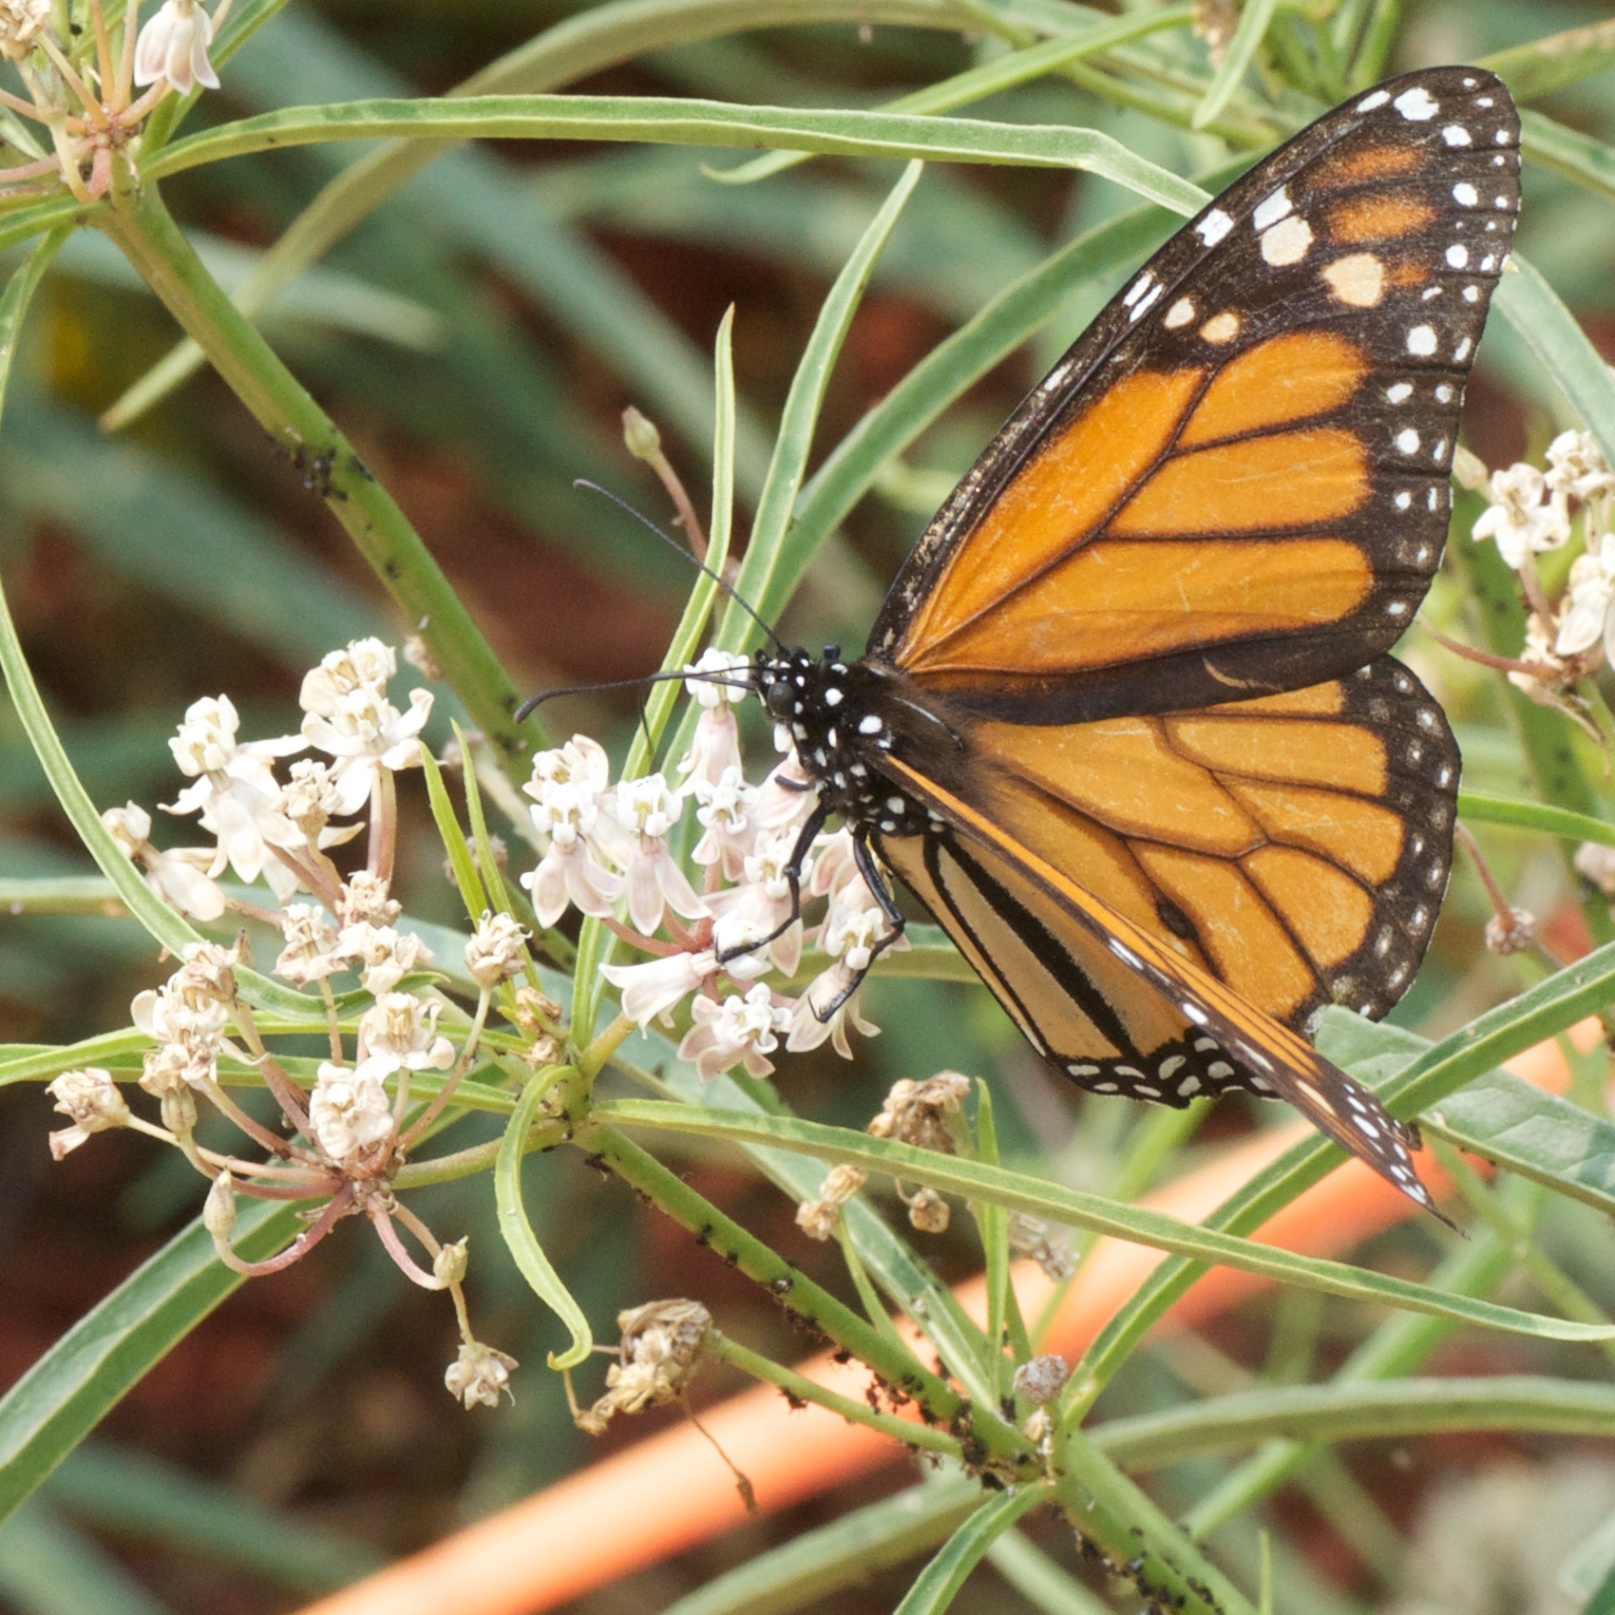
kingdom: Animalia
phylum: Arthropoda
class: Insecta
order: Lepidoptera
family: Nymphalidae
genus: Danaus
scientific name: Danaus plexippus
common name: Monarch
